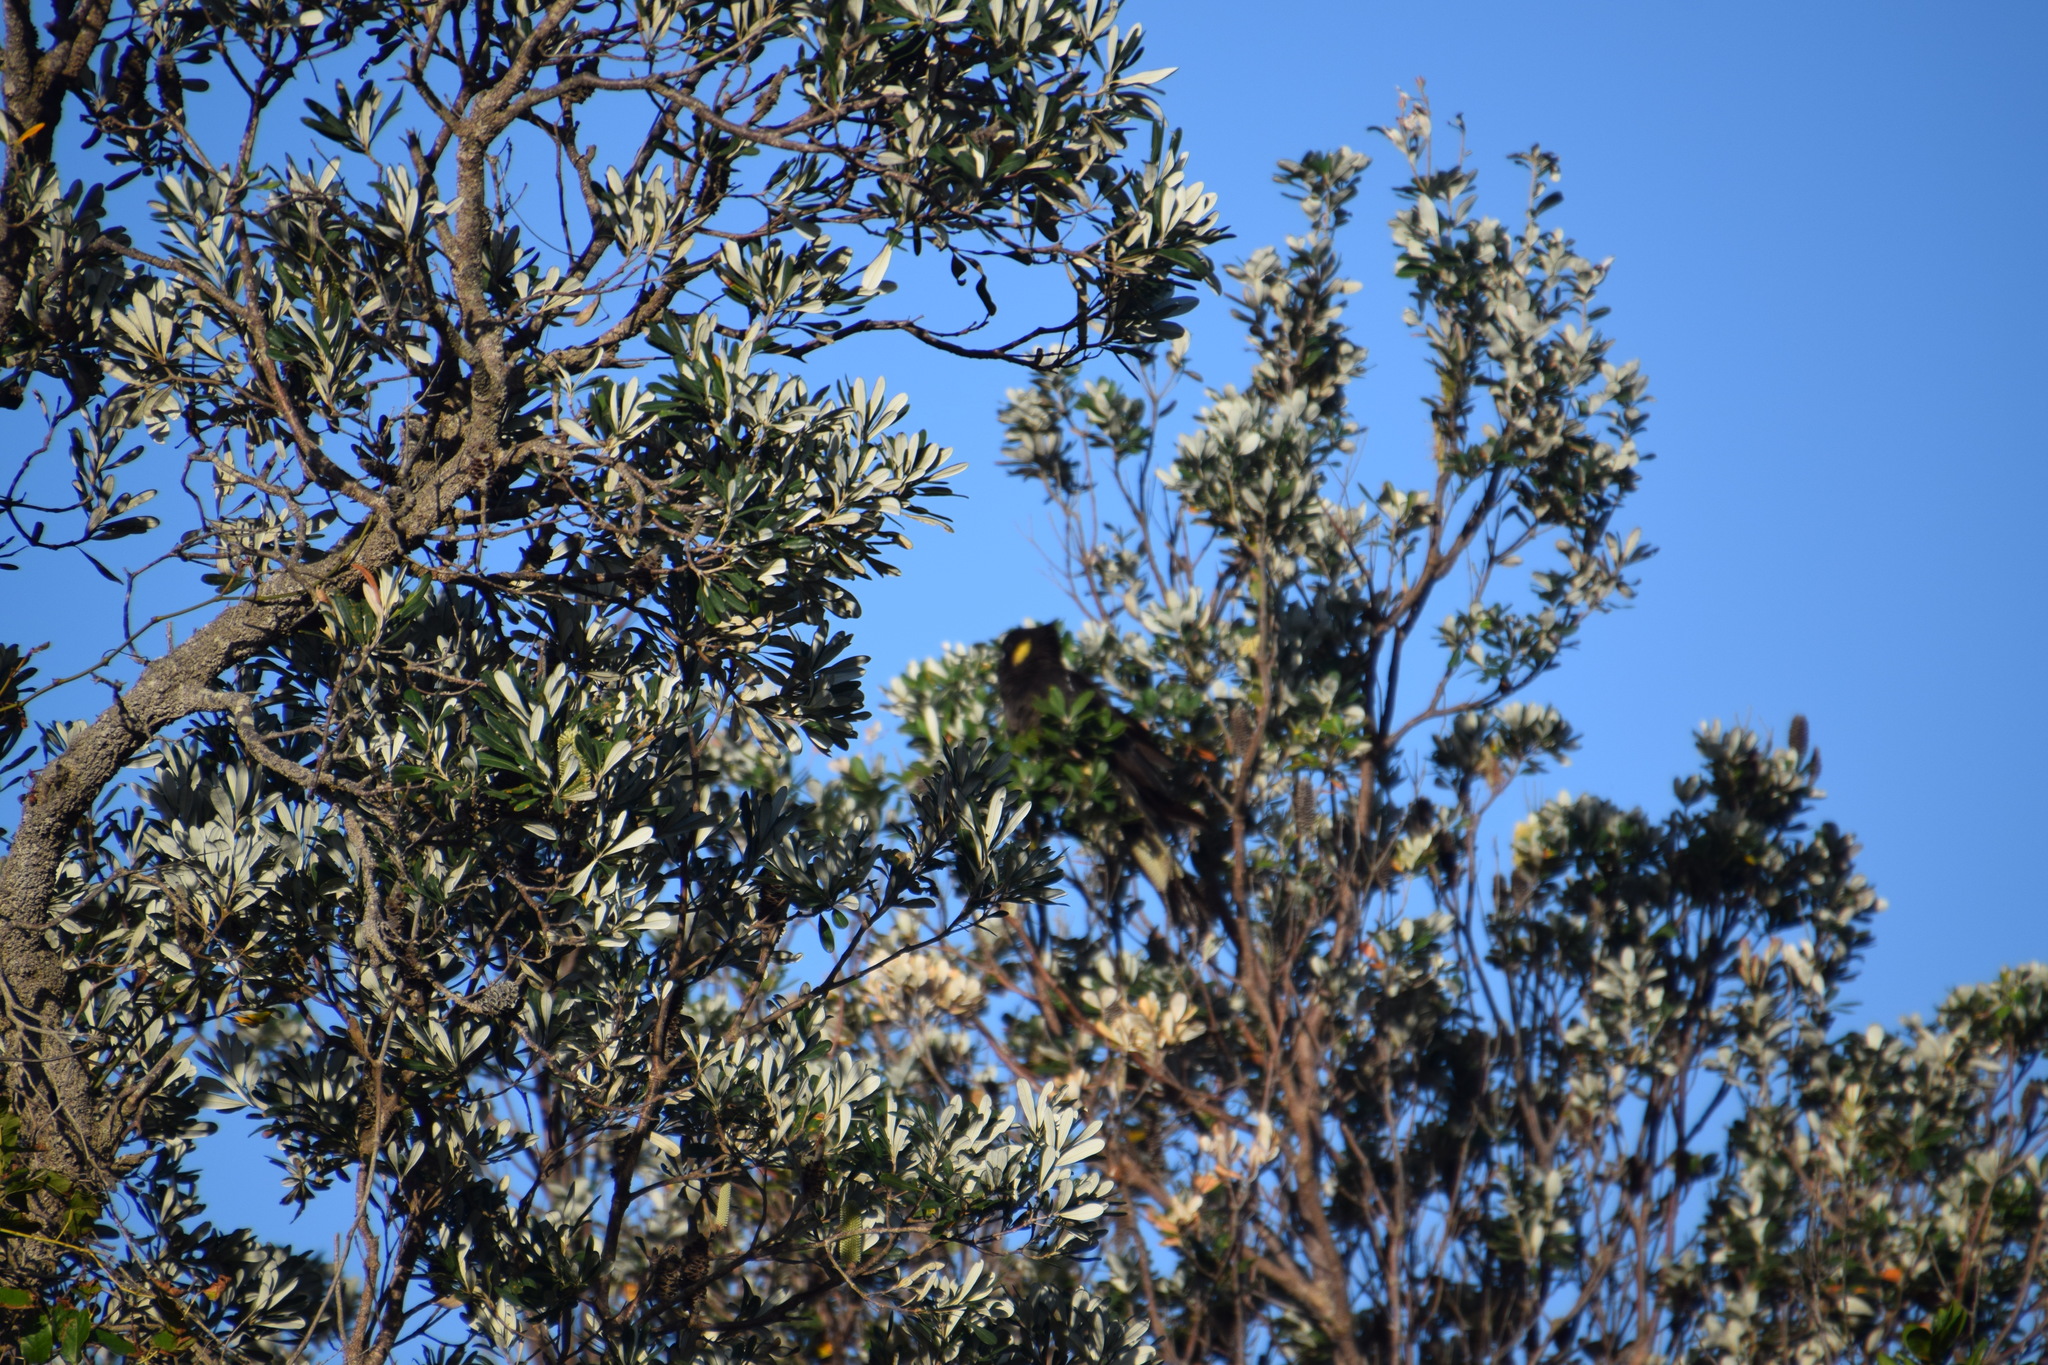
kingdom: Animalia
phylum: Chordata
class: Aves
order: Psittaciformes
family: Cacatuidae
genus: Zanda
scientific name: Zanda funerea
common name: Yellow-tailed black-cockatoo
